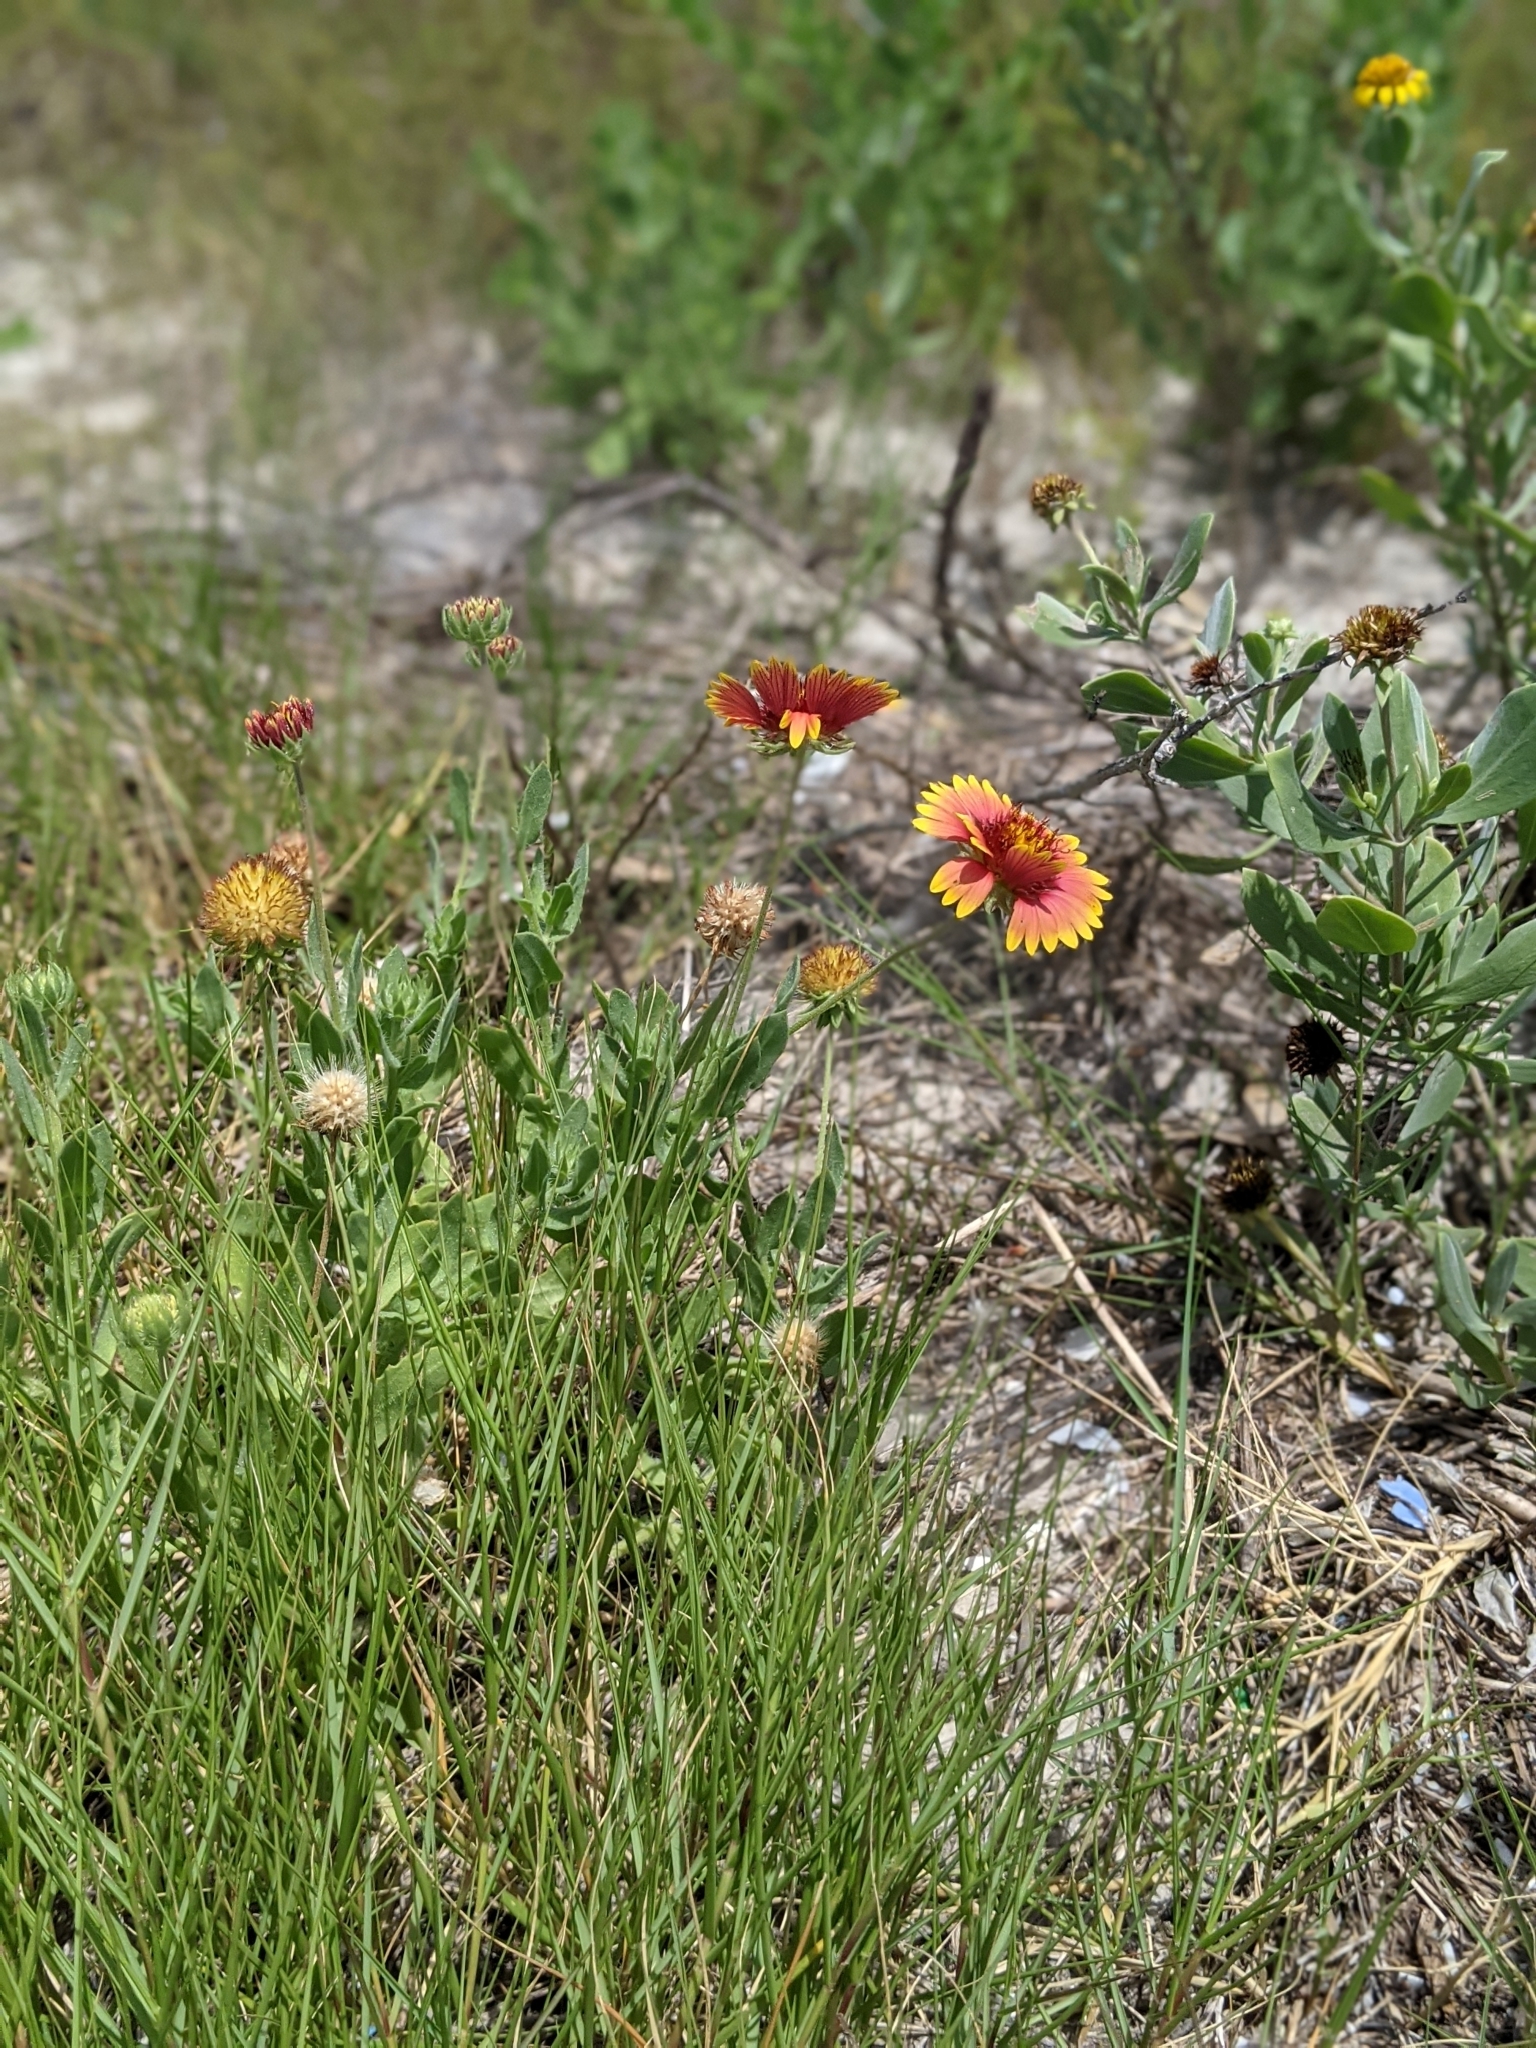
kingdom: Plantae
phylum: Tracheophyta
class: Magnoliopsida
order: Asterales
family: Asteraceae
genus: Gaillardia
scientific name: Gaillardia pulchella
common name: Firewheel
